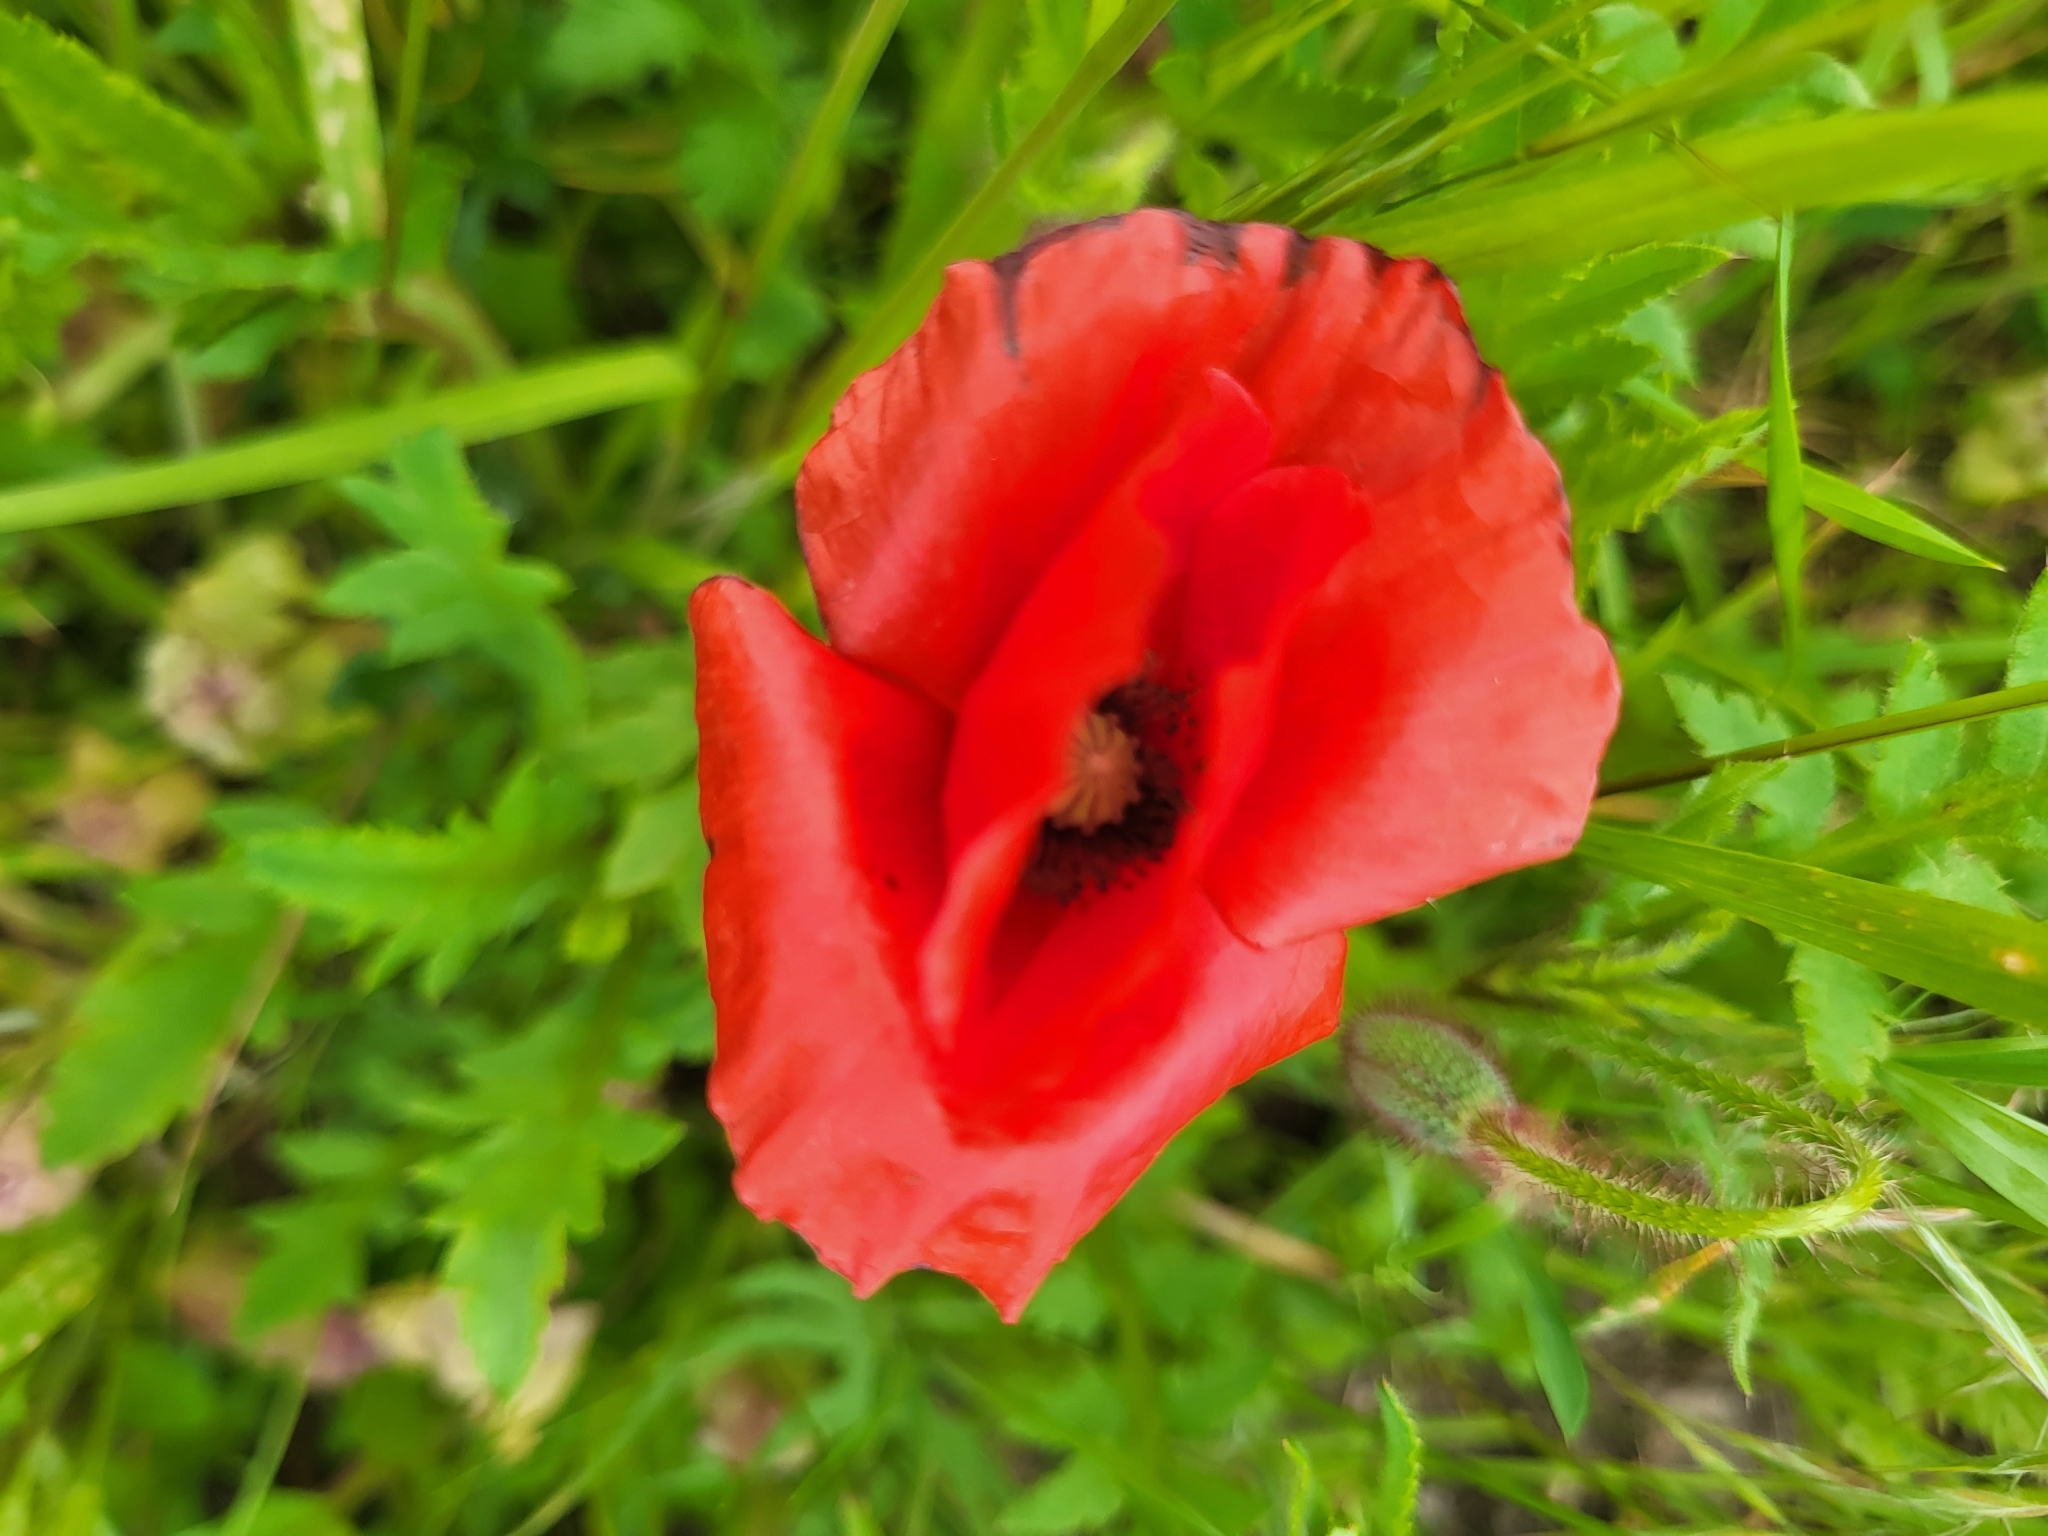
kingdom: Plantae
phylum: Tracheophyta
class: Magnoliopsida
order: Ranunculales
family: Papaveraceae
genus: Papaver
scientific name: Papaver rhoeas
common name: Corn poppy
